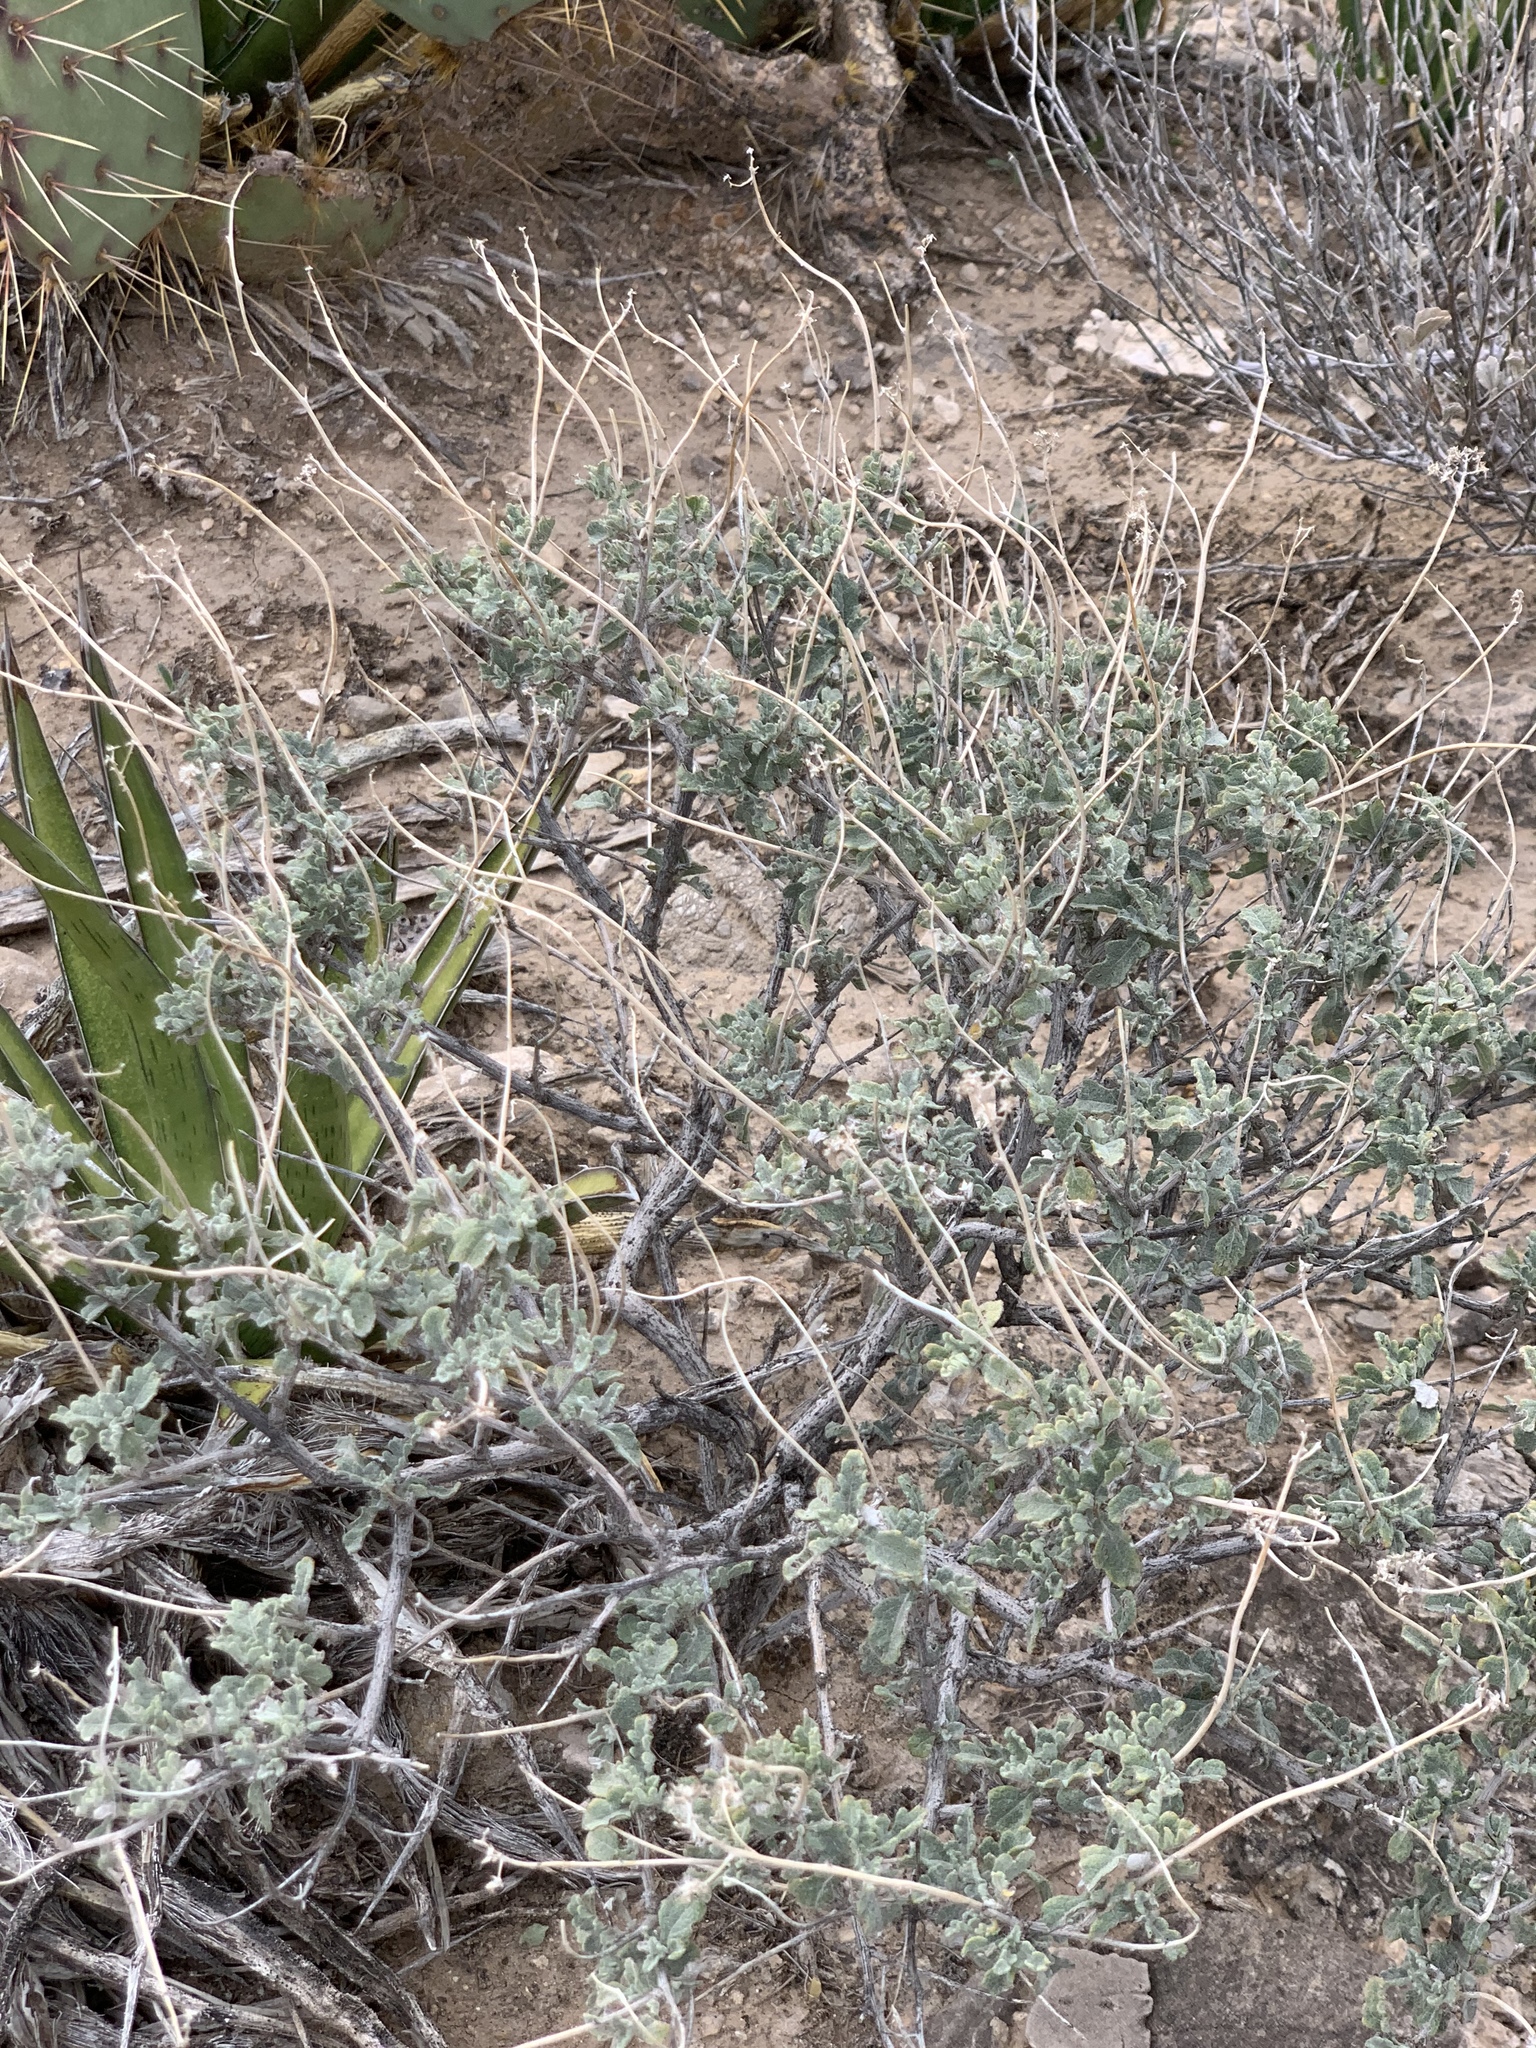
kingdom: Plantae
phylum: Tracheophyta
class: Magnoliopsida
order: Asterales
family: Asteraceae
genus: Parthenium
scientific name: Parthenium incanum
